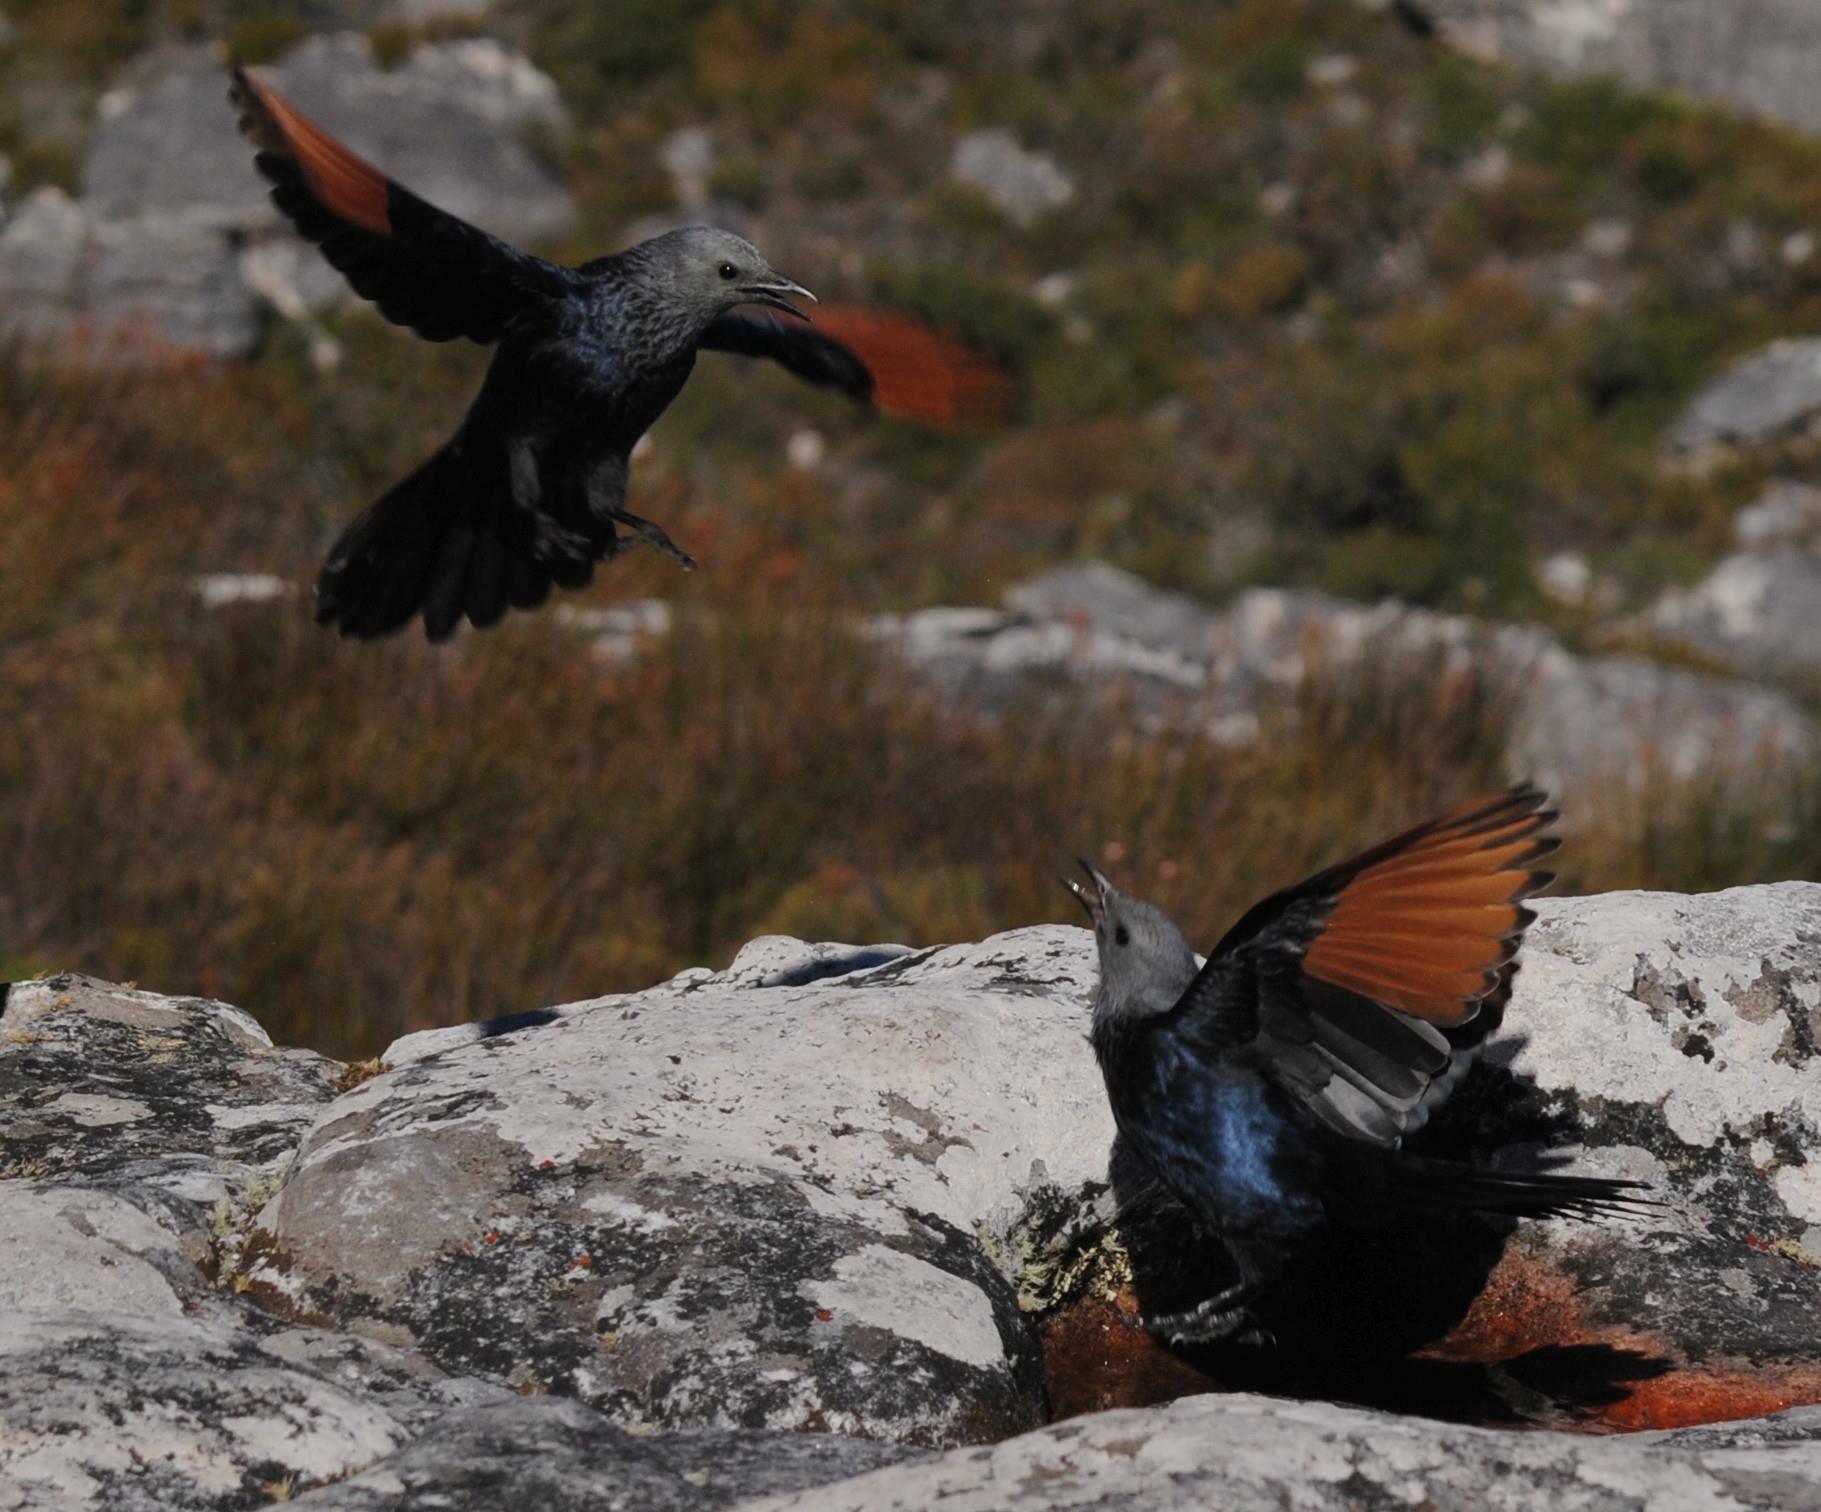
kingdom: Animalia
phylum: Chordata
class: Aves
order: Passeriformes
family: Sturnidae
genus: Onychognathus
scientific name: Onychognathus morio
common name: Red-winged starling
